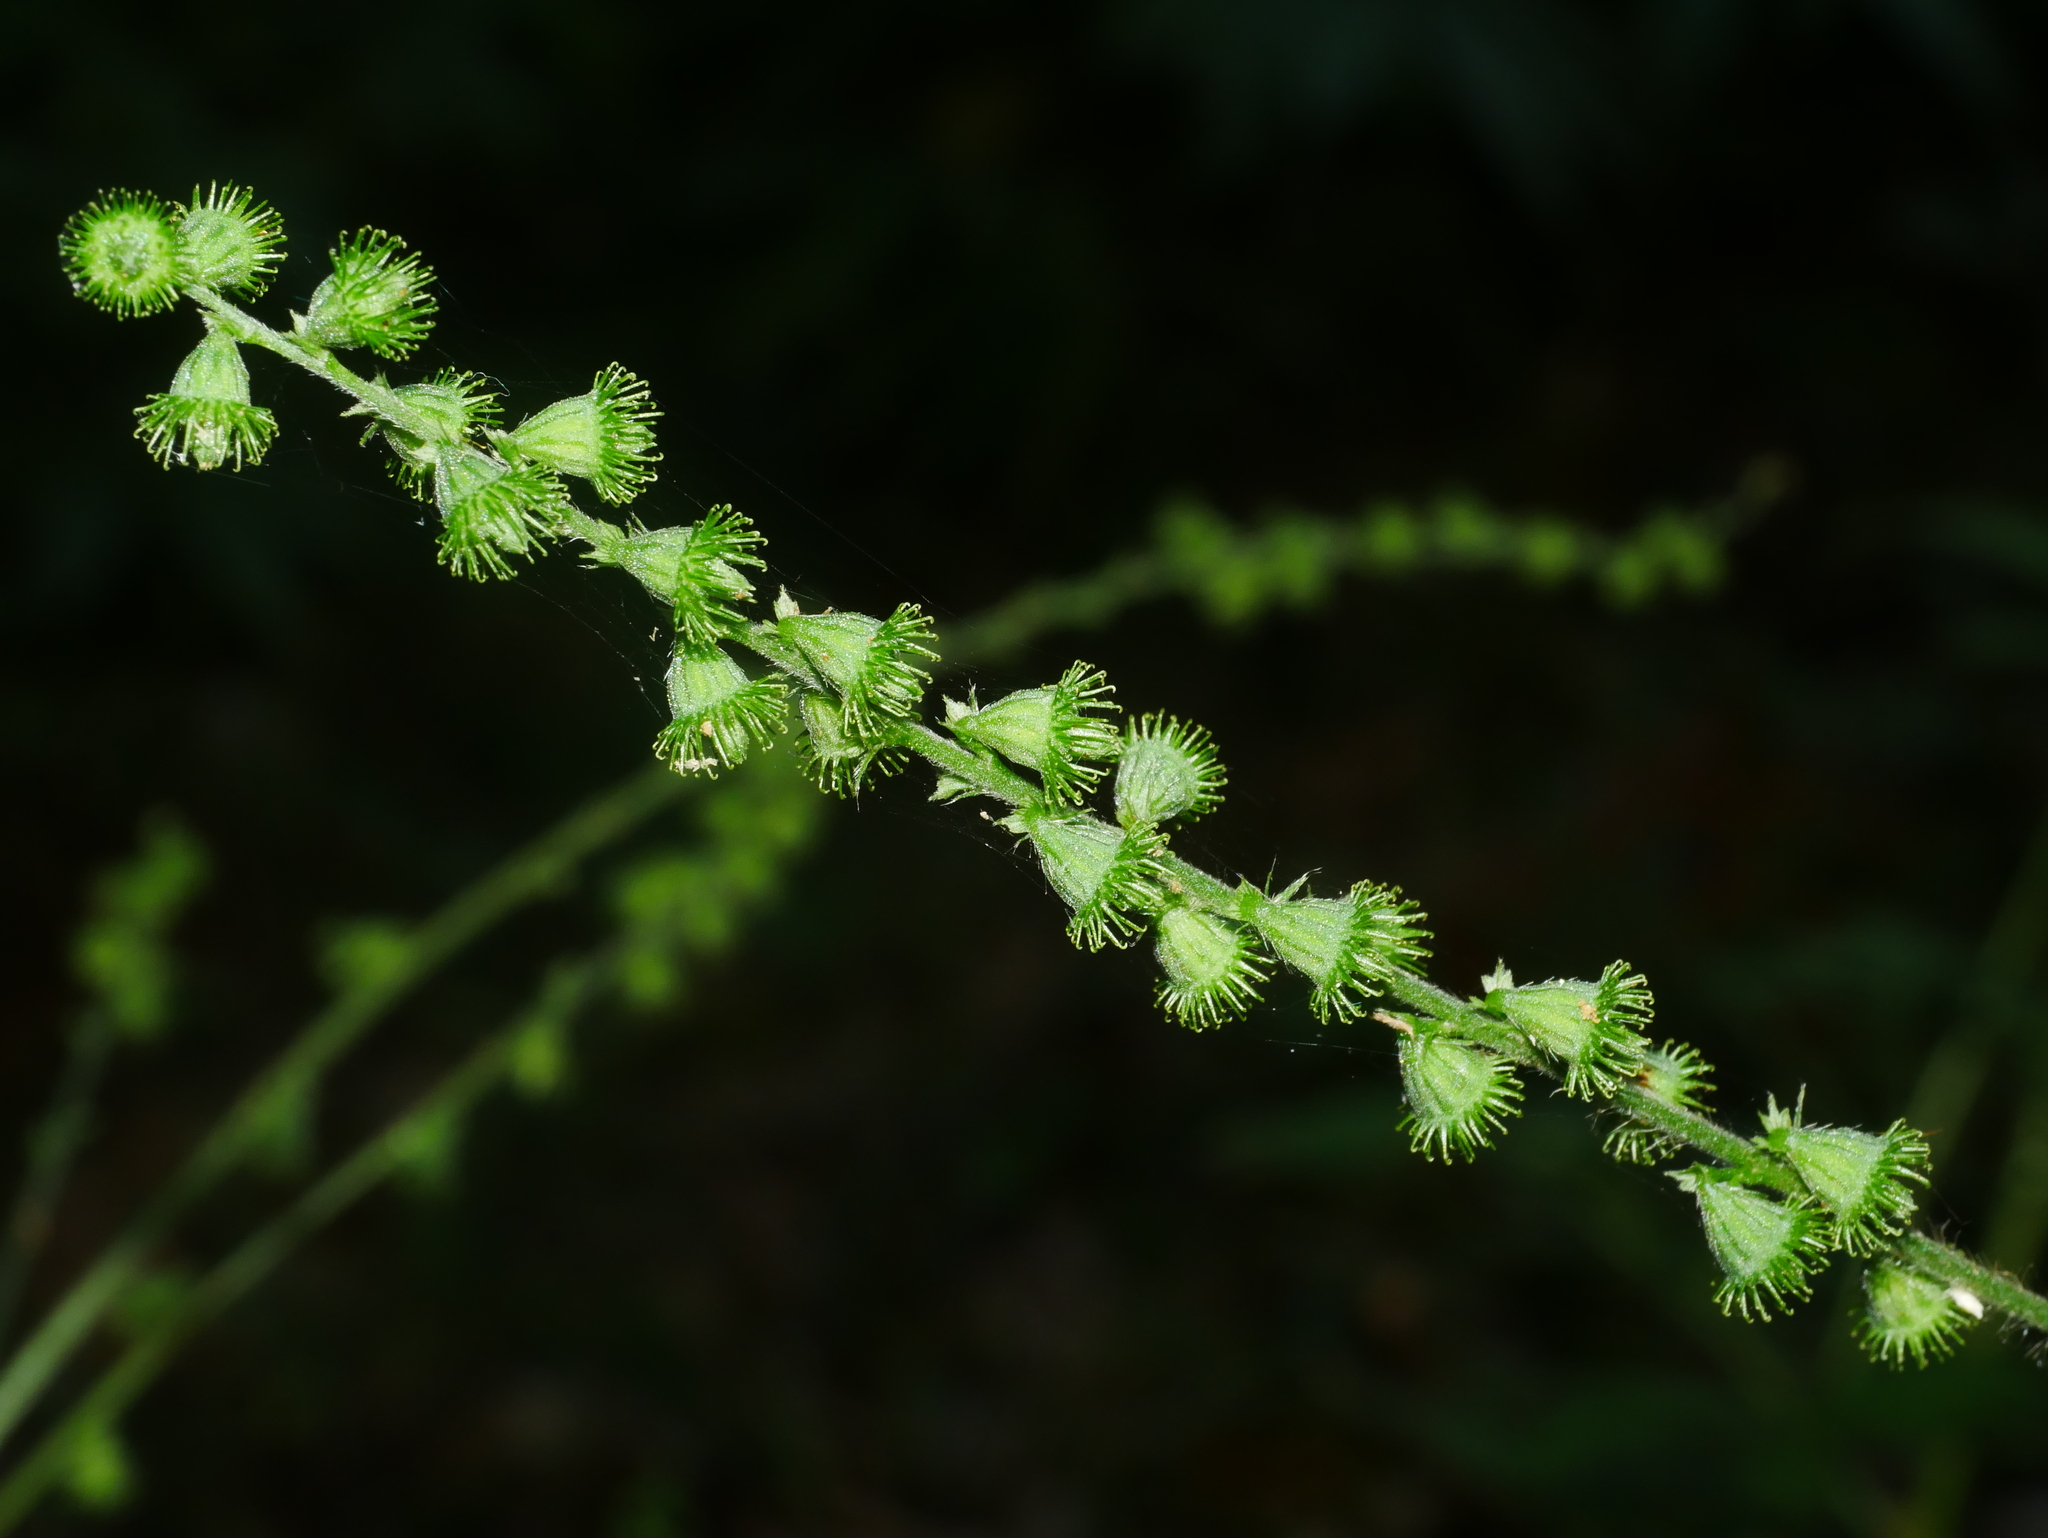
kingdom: Plantae
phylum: Tracheophyta
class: Magnoliopsida
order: Rosales
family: Rosaceae
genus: Agrimonia
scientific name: Agrimonia pilosa
